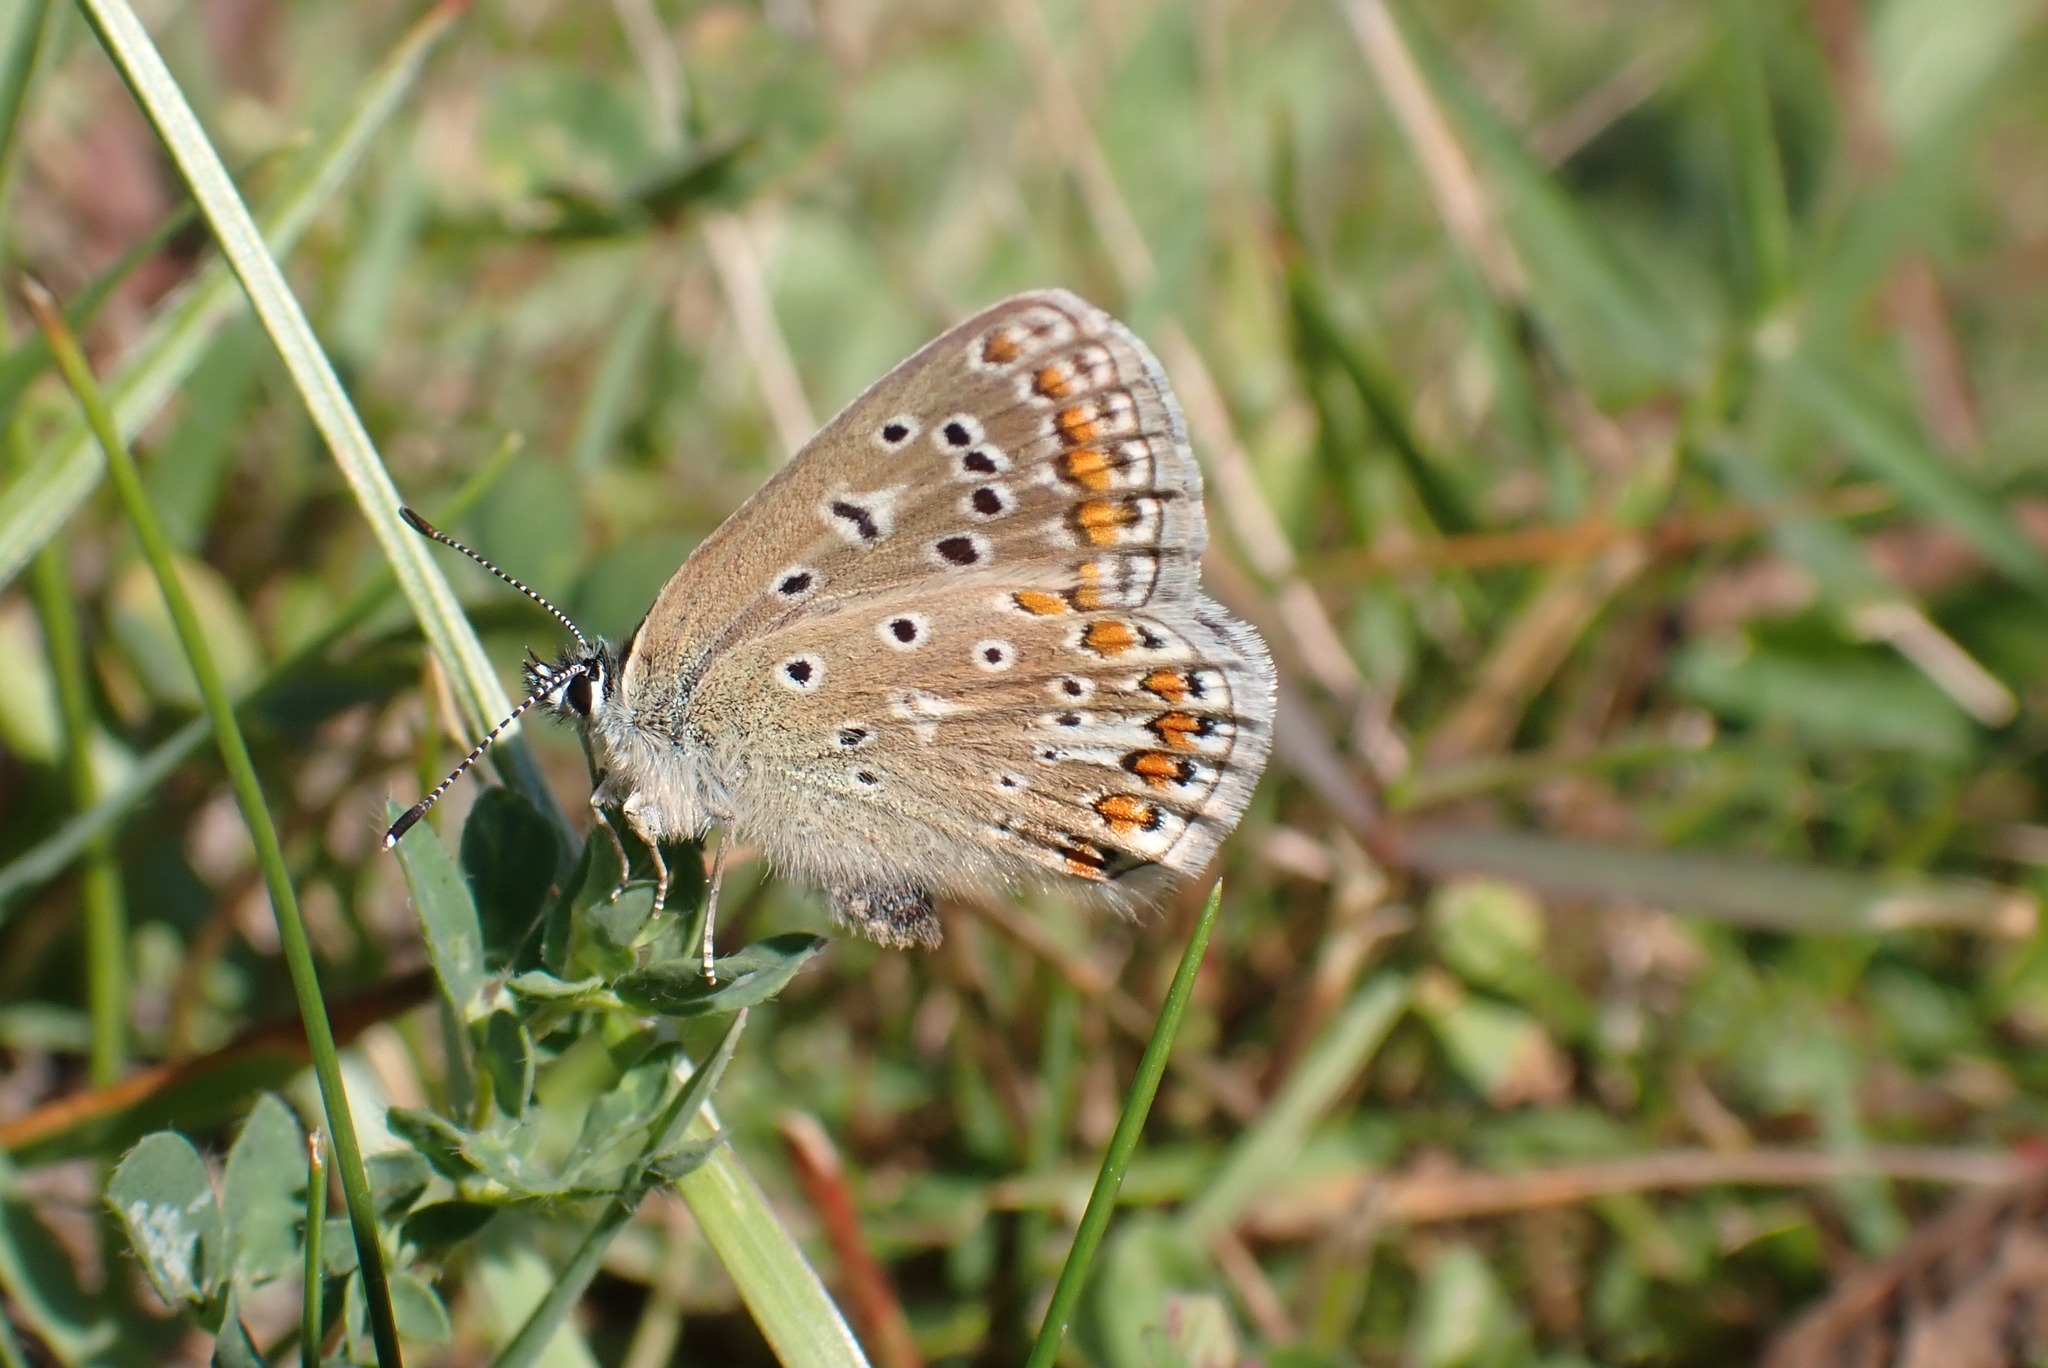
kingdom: Animalia
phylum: Arthropoda
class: Insecta
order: Lepidoptera
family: Lycaenidae
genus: Polyommatus
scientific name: Polyommatus icarus
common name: Common blue
